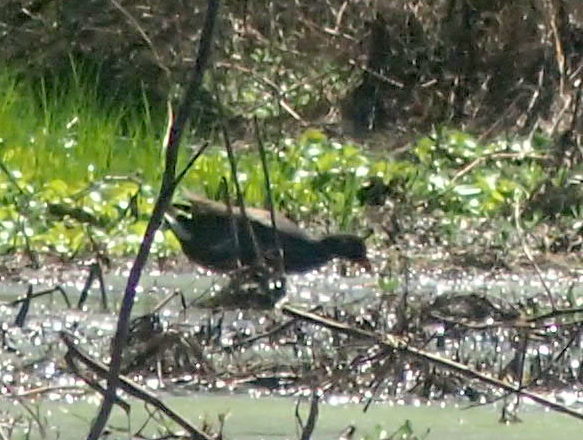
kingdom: Animalia
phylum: Chordata
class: Aves
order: Gruiformes
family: Rallidae
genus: Gallinula
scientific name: Gallinula chloropus
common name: Common moorhen
